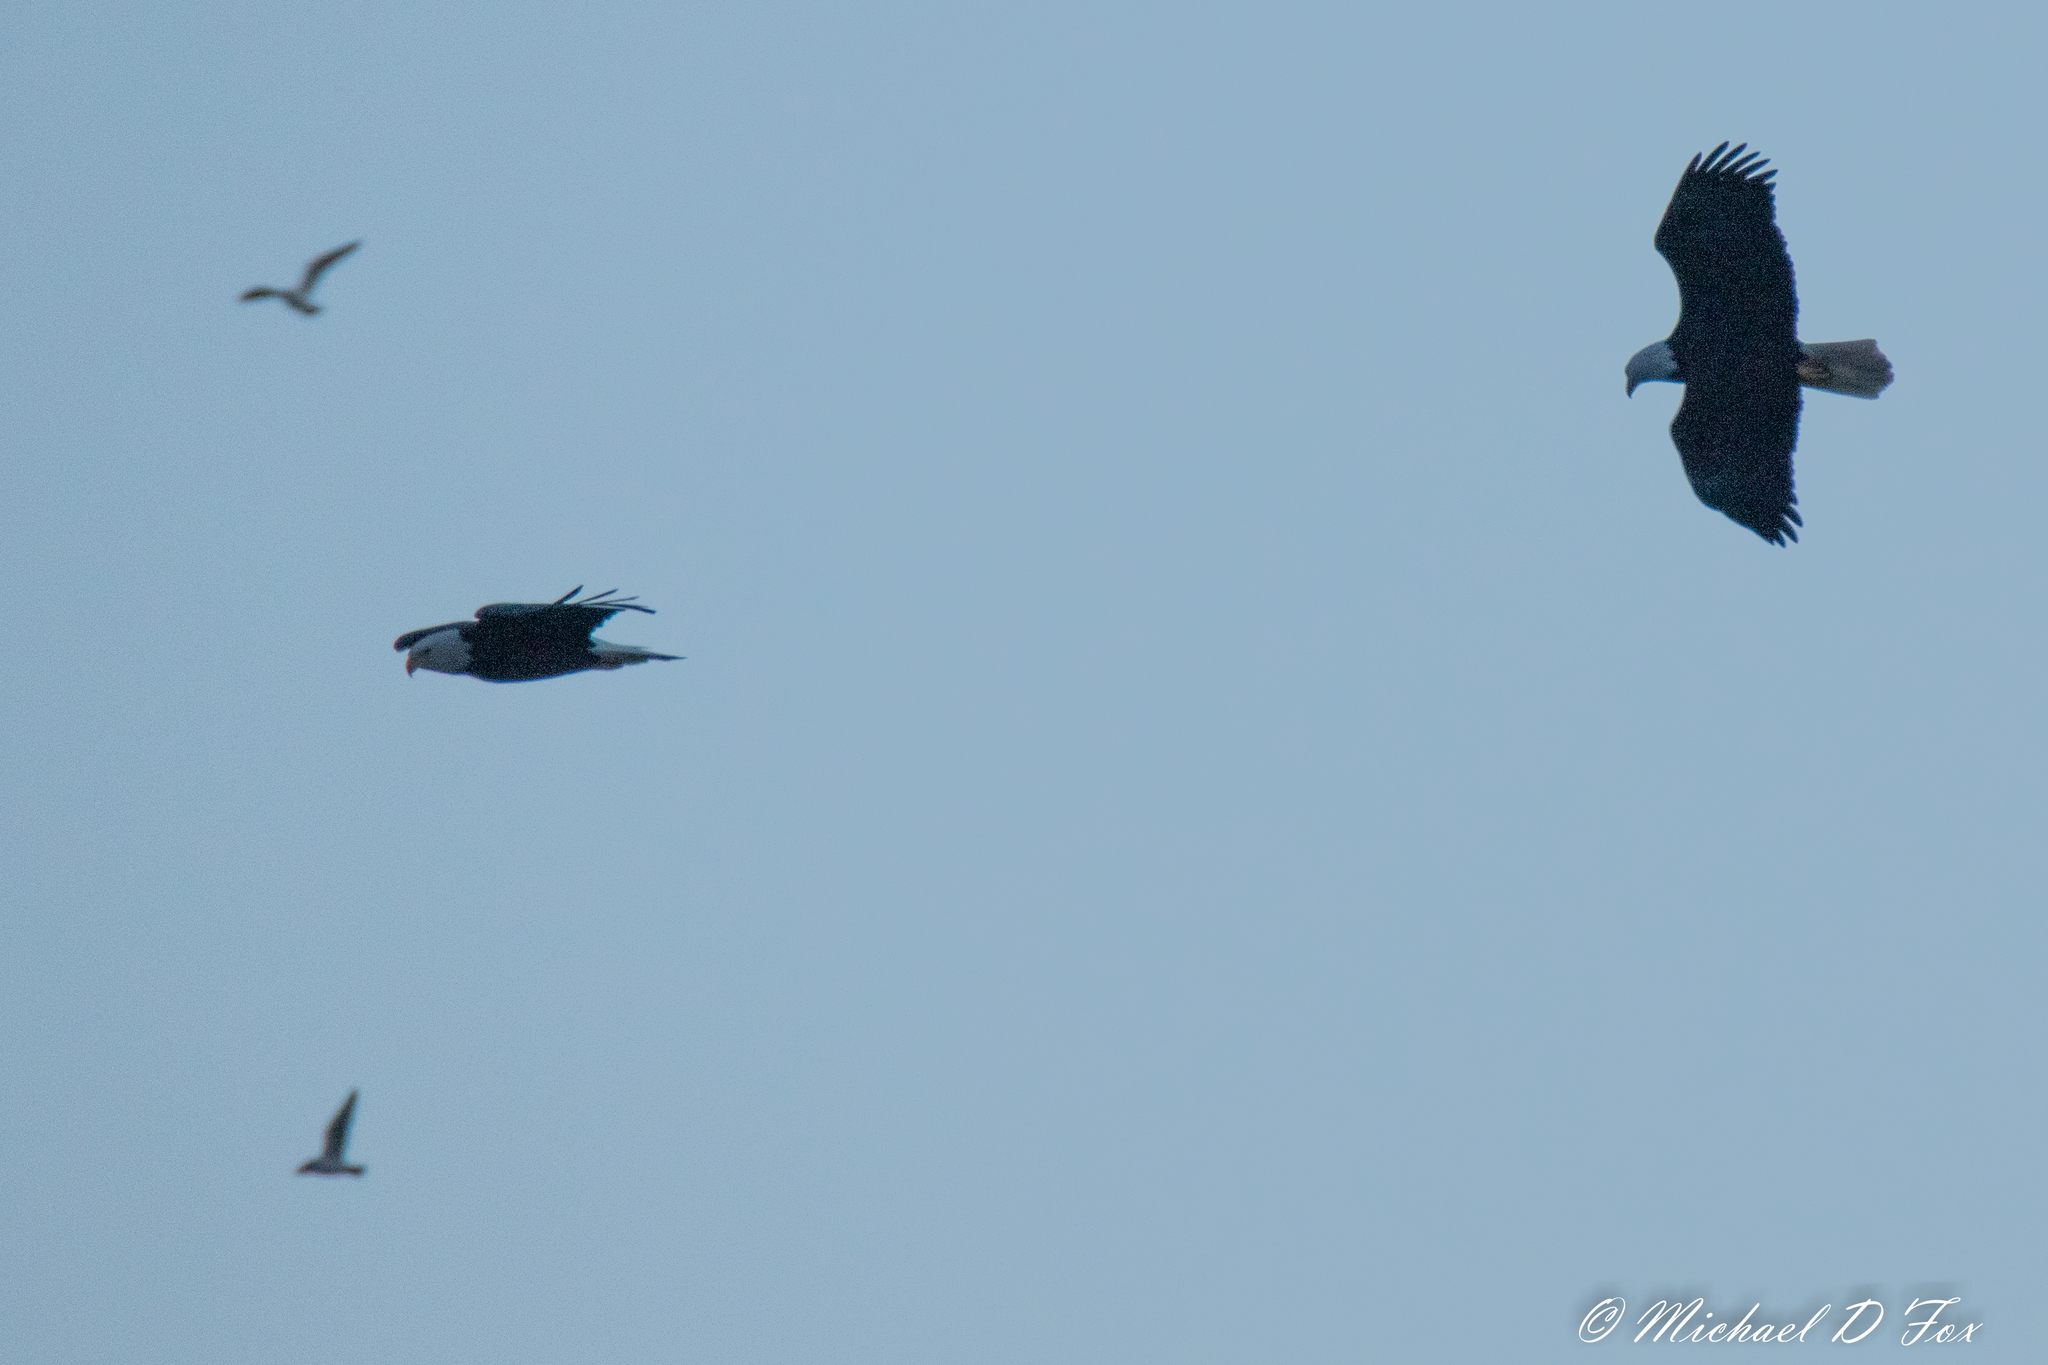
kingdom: Animalia
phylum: Chordata
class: Aves
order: Accipitriformes
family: Accipitridae
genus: Haliaeetus
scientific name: Haliaeetus leucocephalus
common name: Bald eagle
